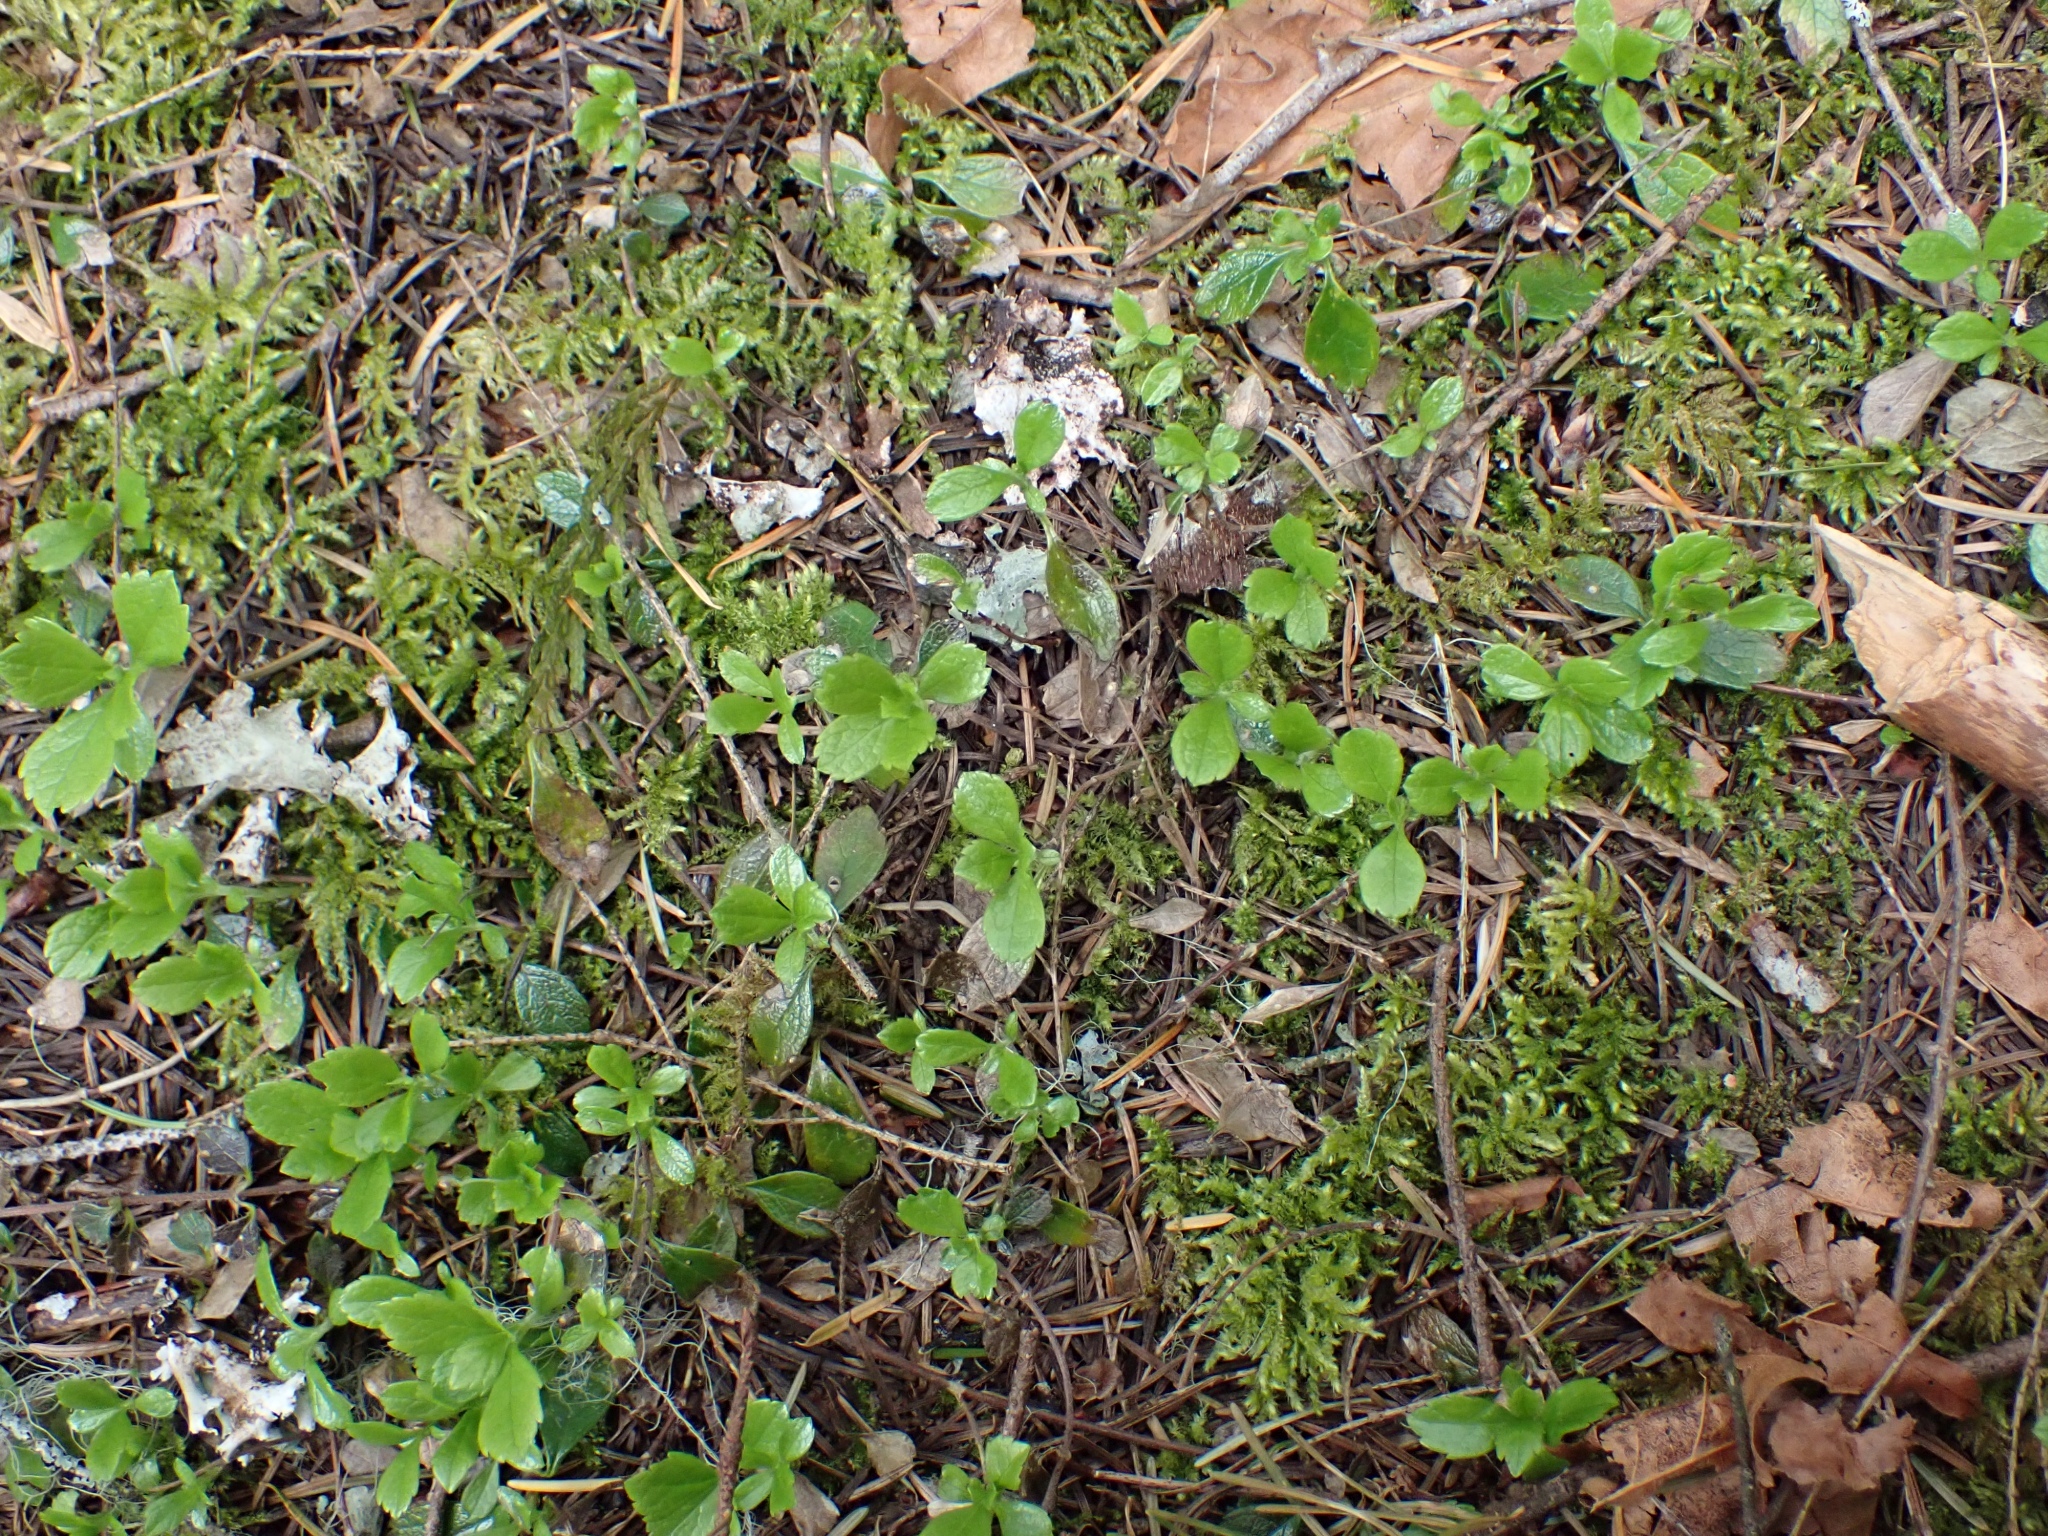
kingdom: Plantae
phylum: Tracheophyta
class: Magnoliopsida
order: Dipsacales
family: Caprifoliaceae
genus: Linnaea
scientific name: Linnaea borealis
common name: Twinflower
